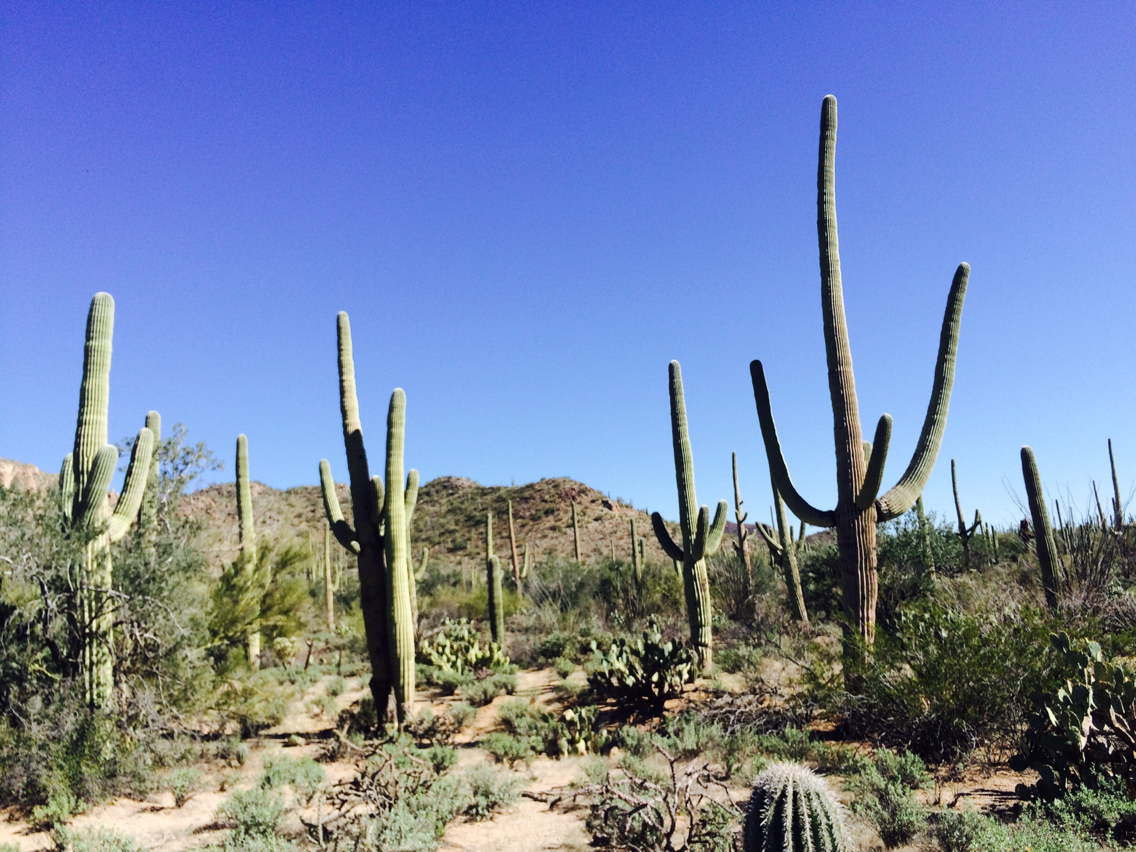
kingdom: Plantae
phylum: Tracheophyta
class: Magnoliopsida
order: Caryophyllales
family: Cactaceae
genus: Carnegiea
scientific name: Carnegiea gigantea
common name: Saguaro
